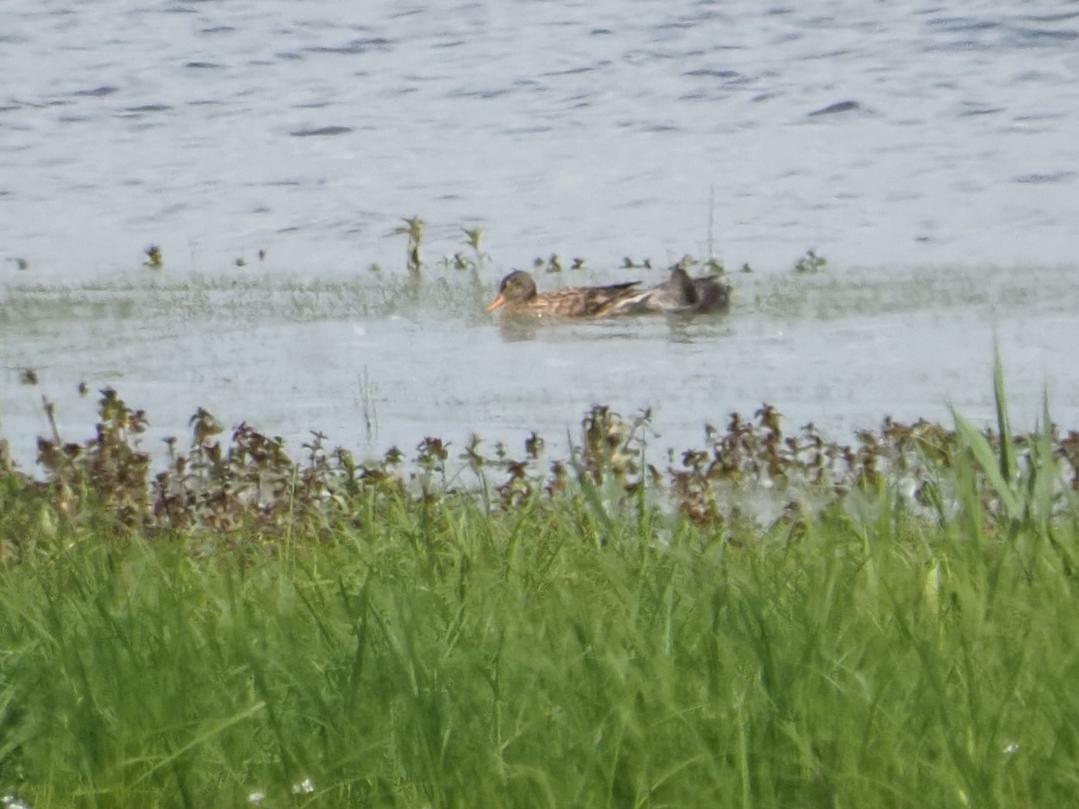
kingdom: Animalia
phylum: Chordata
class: Aves
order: Anseriformes
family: Anatidae
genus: Mareca
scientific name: Mareca strepera
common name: Gadwall
